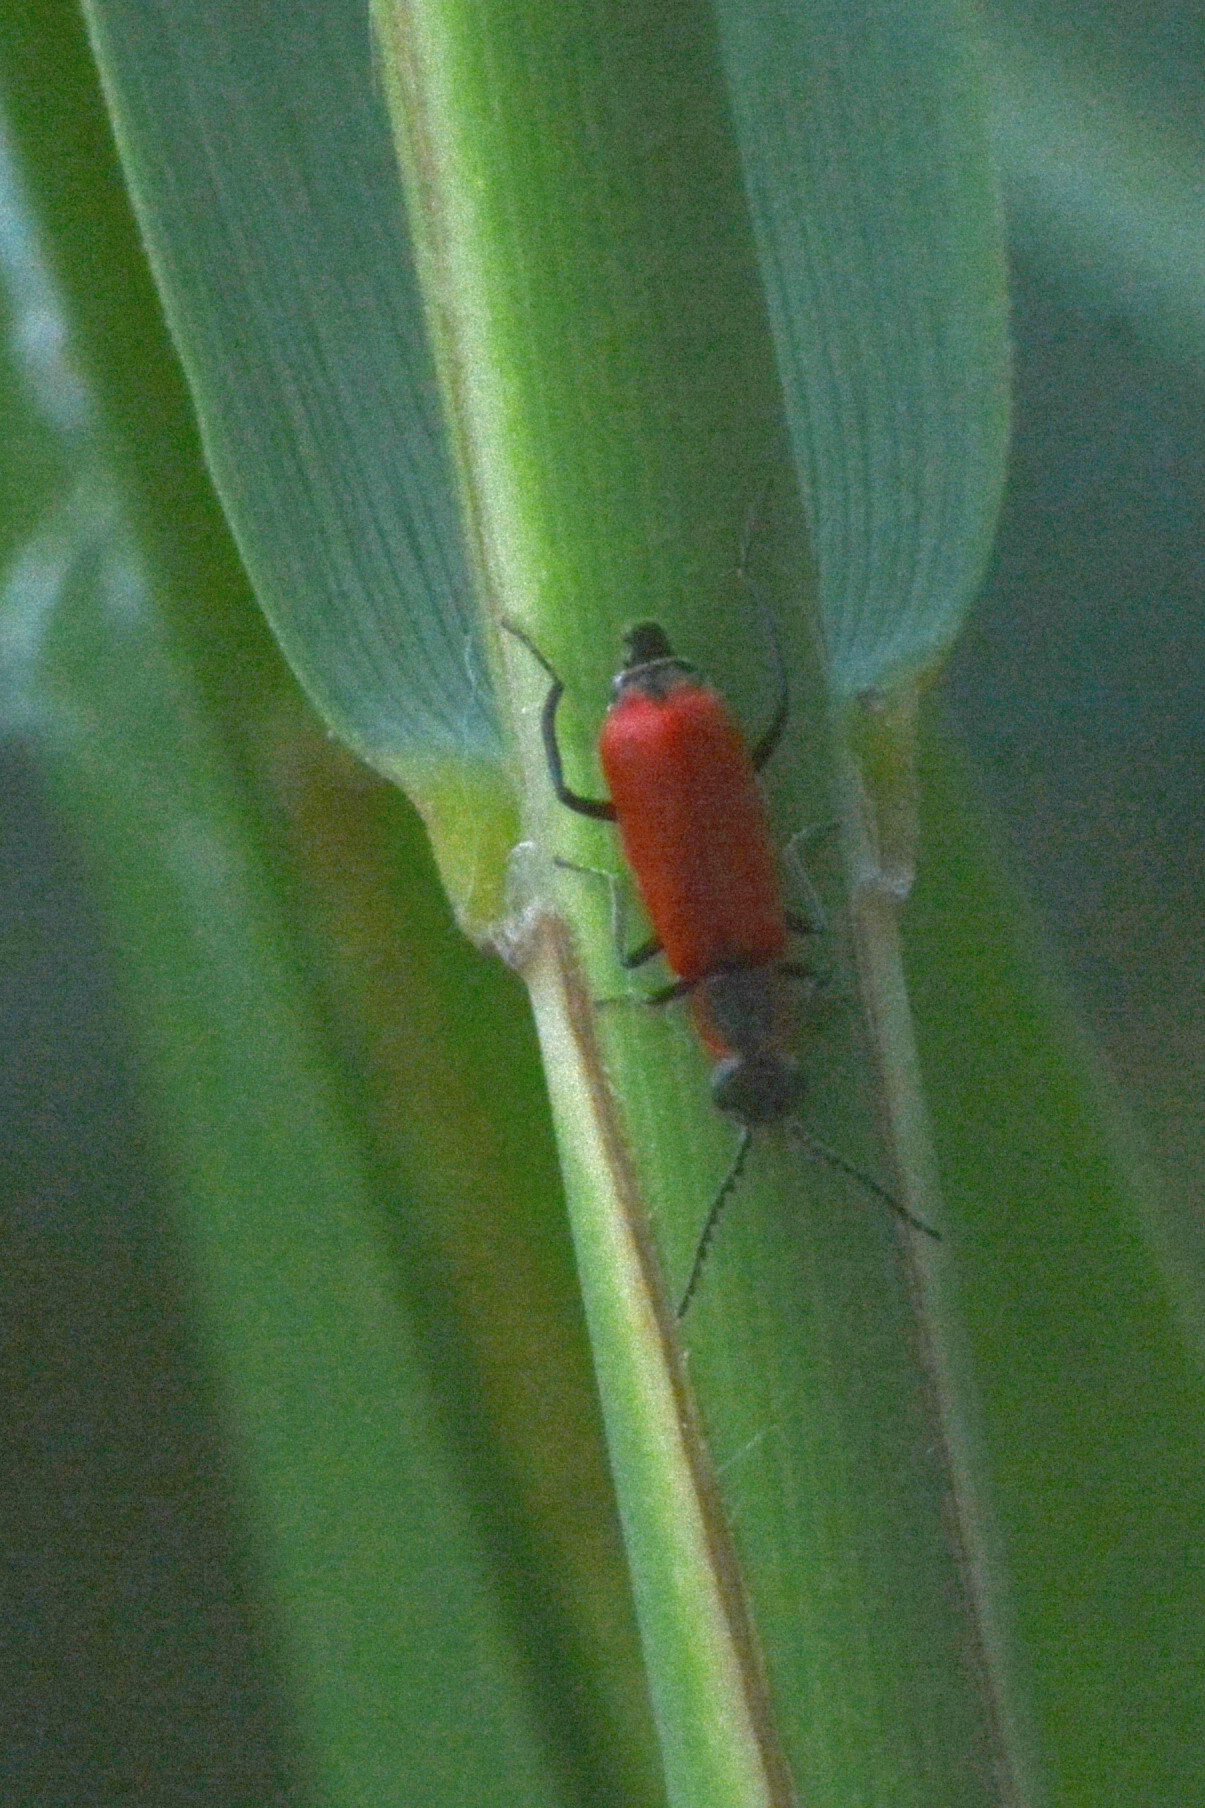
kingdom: Animalia
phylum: Arthropoda
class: Insecta
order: Coleoptera
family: Melyridae
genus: Anthocomus
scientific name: Anthocomus rufus
